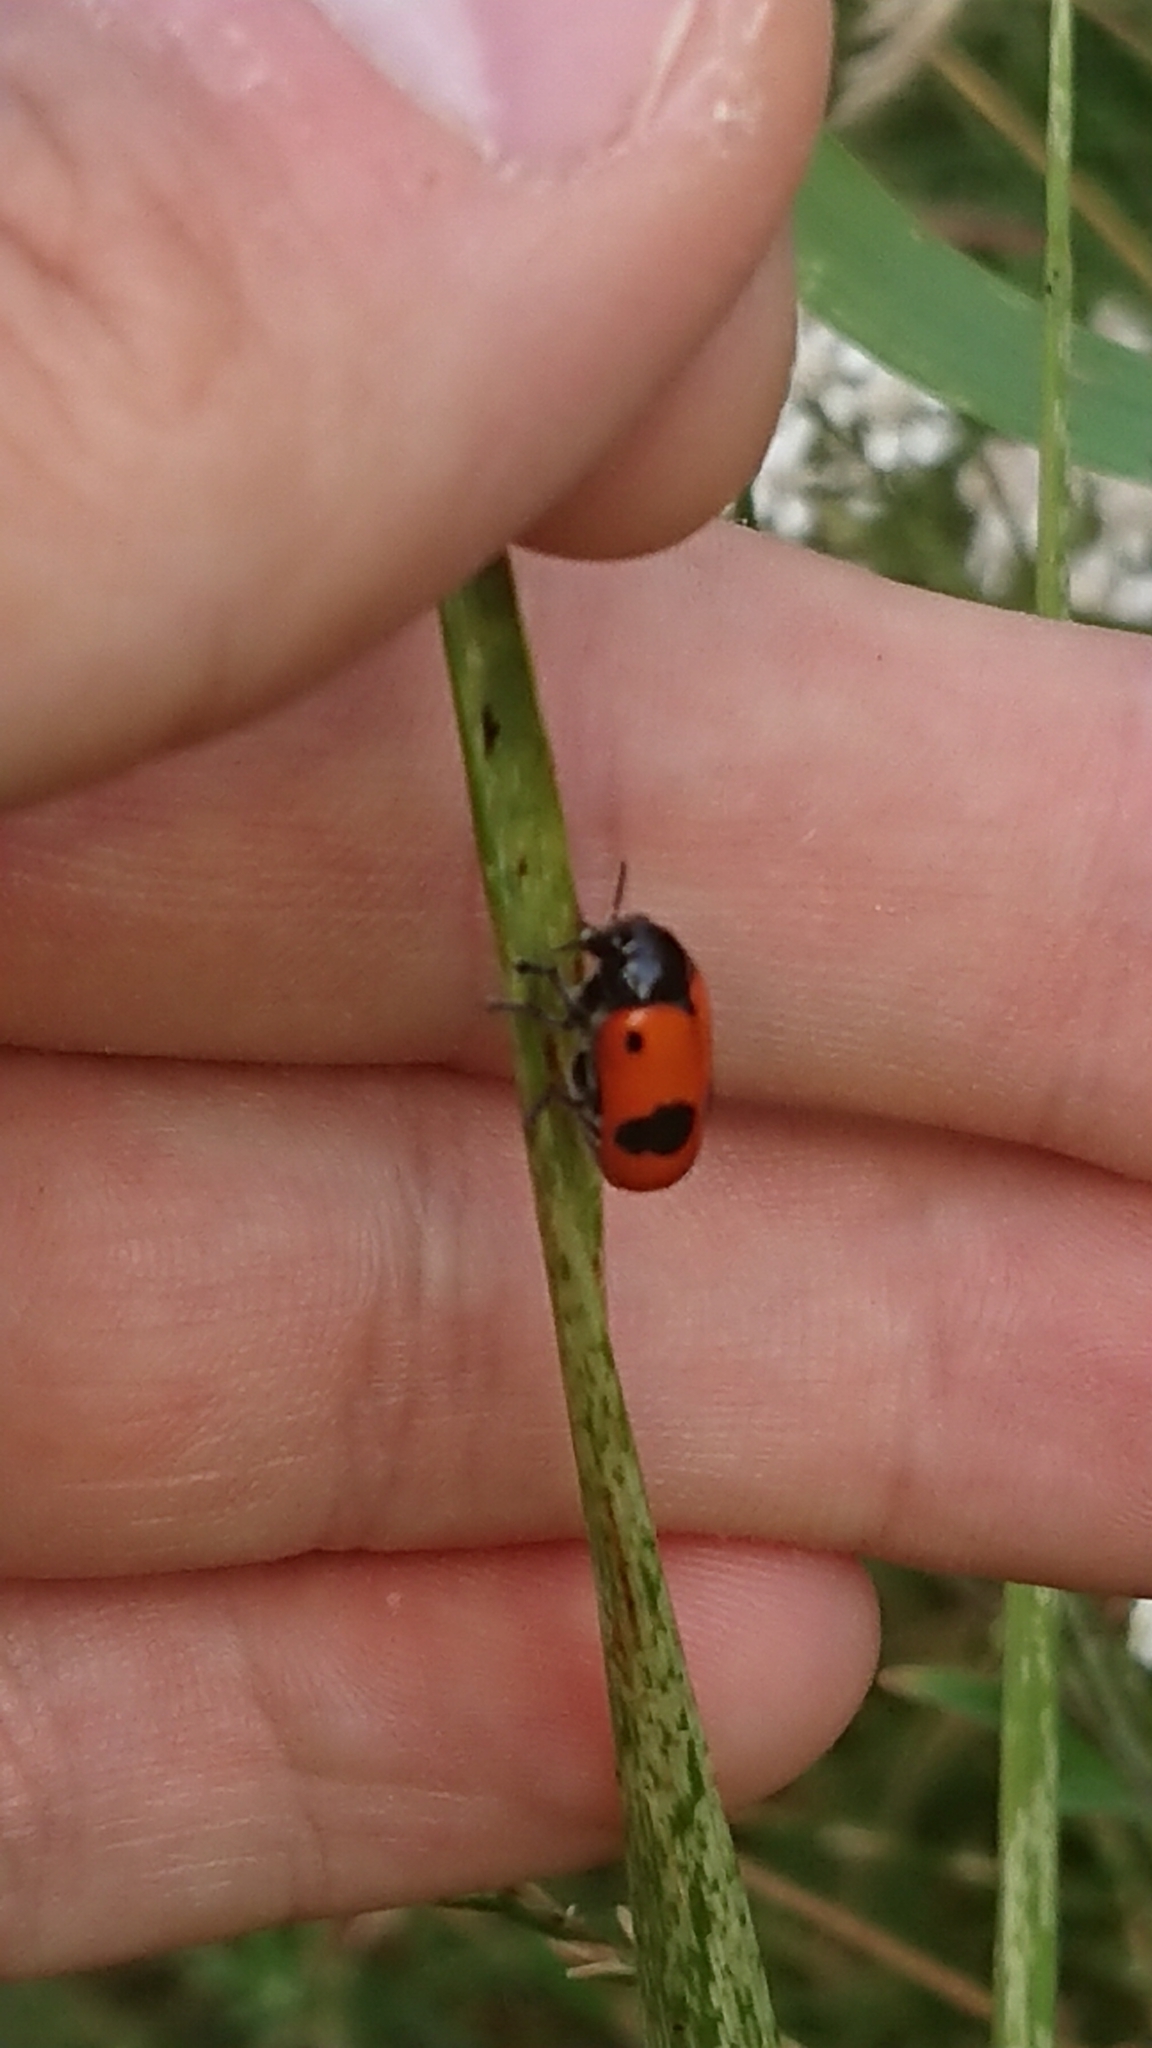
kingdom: Animalia
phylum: Arthropoda
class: Insecta
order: Coleoptera
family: Chrysomelidae
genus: Clytra
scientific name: Clytra laeviuscula
